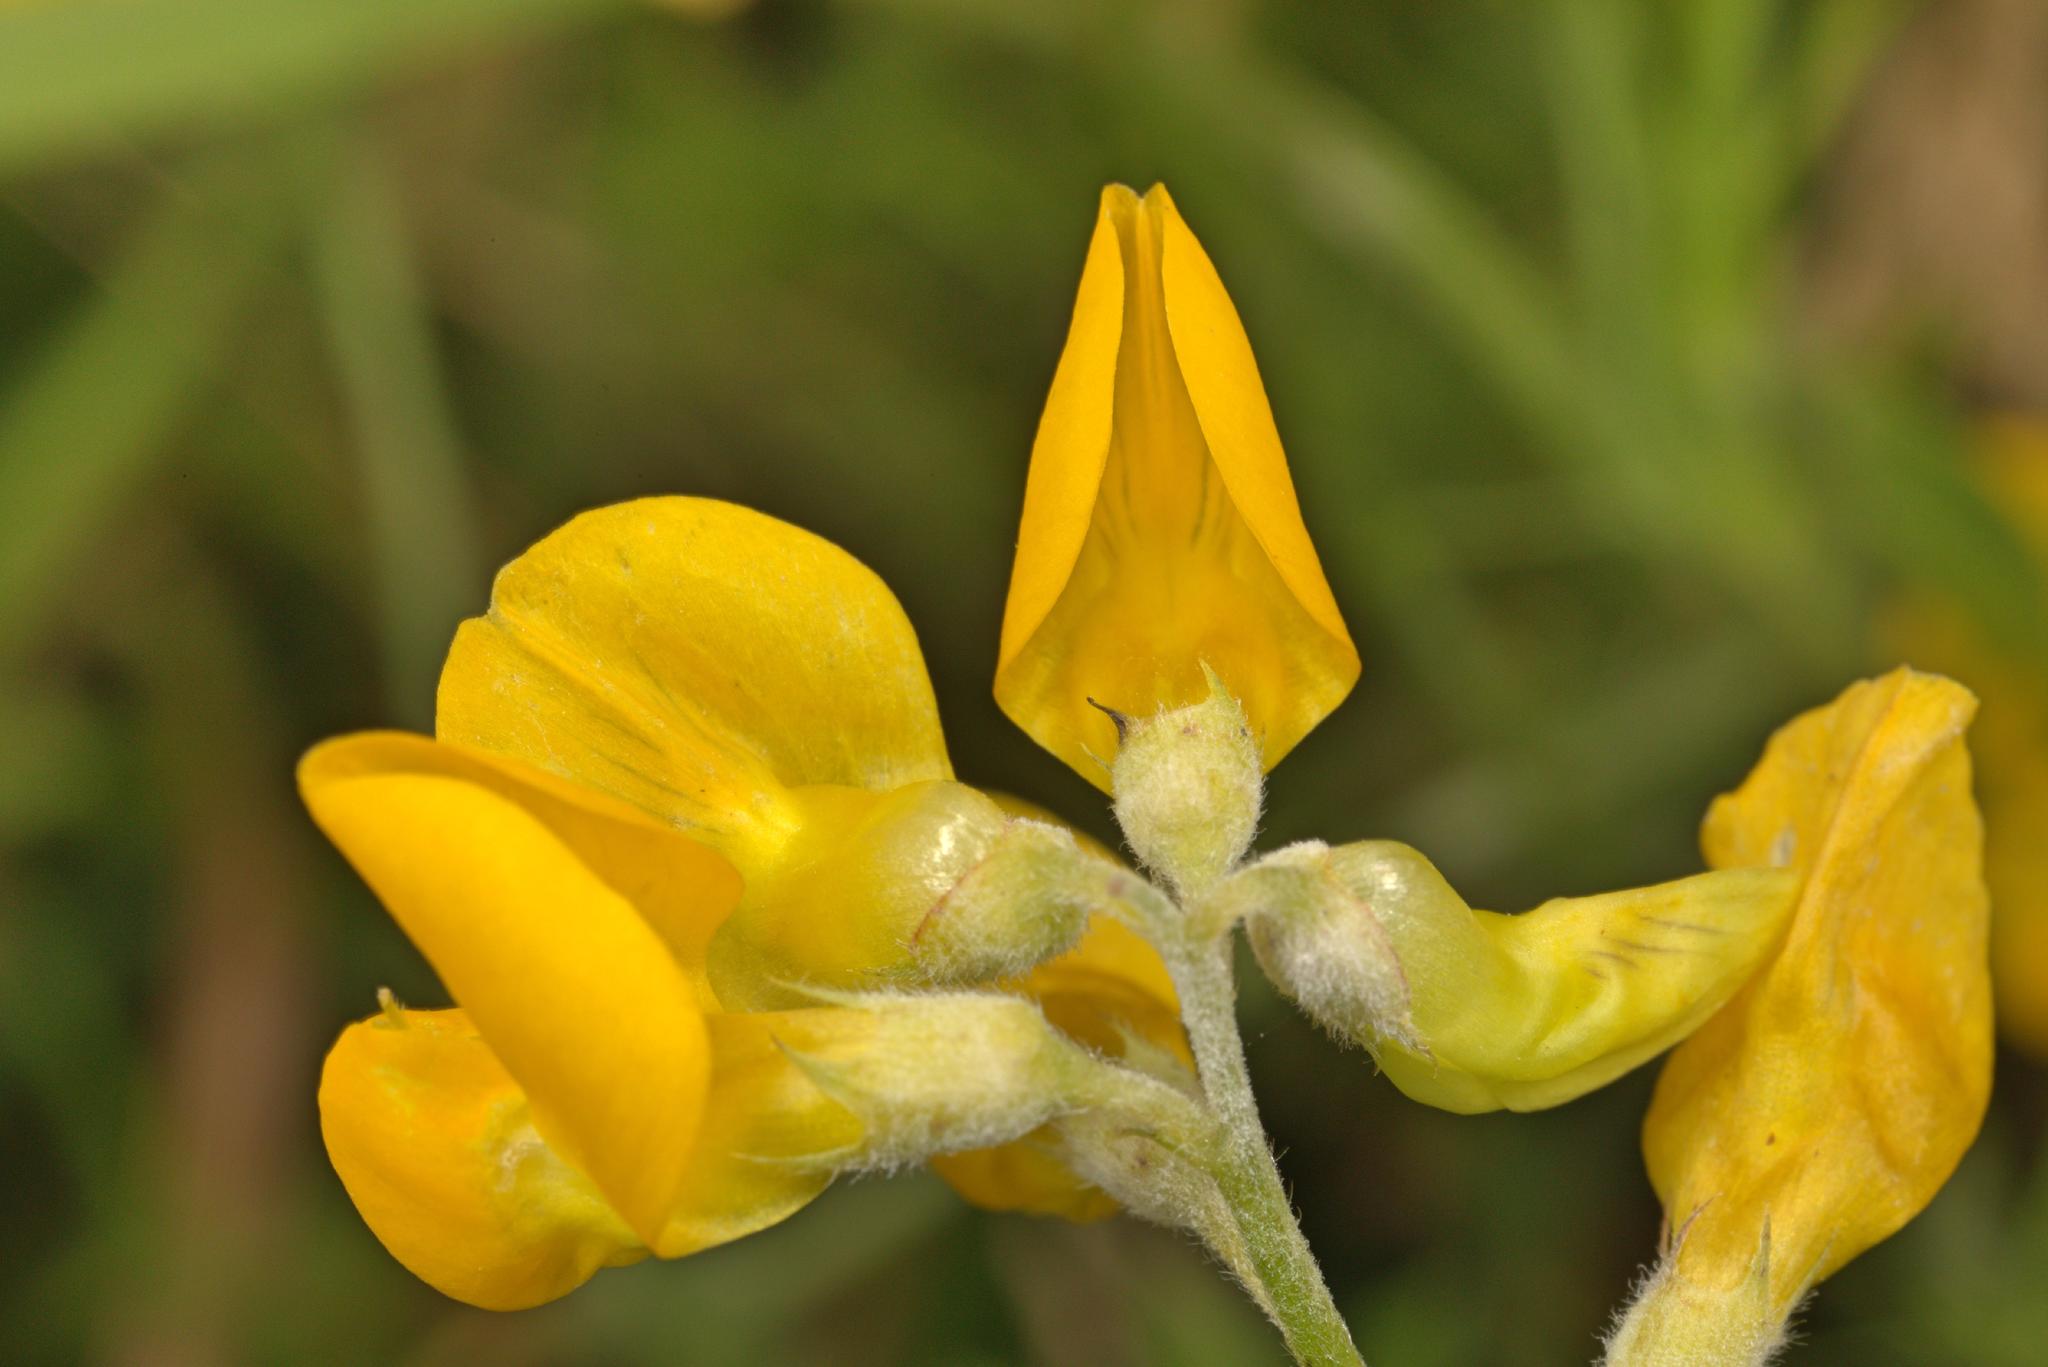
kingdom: Plantae
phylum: Tracheophyta
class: Magnoliopsida
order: Fabales
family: Fabaceae
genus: Lathyrus
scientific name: Lathyrus pratensis
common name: Meadow vetchling
